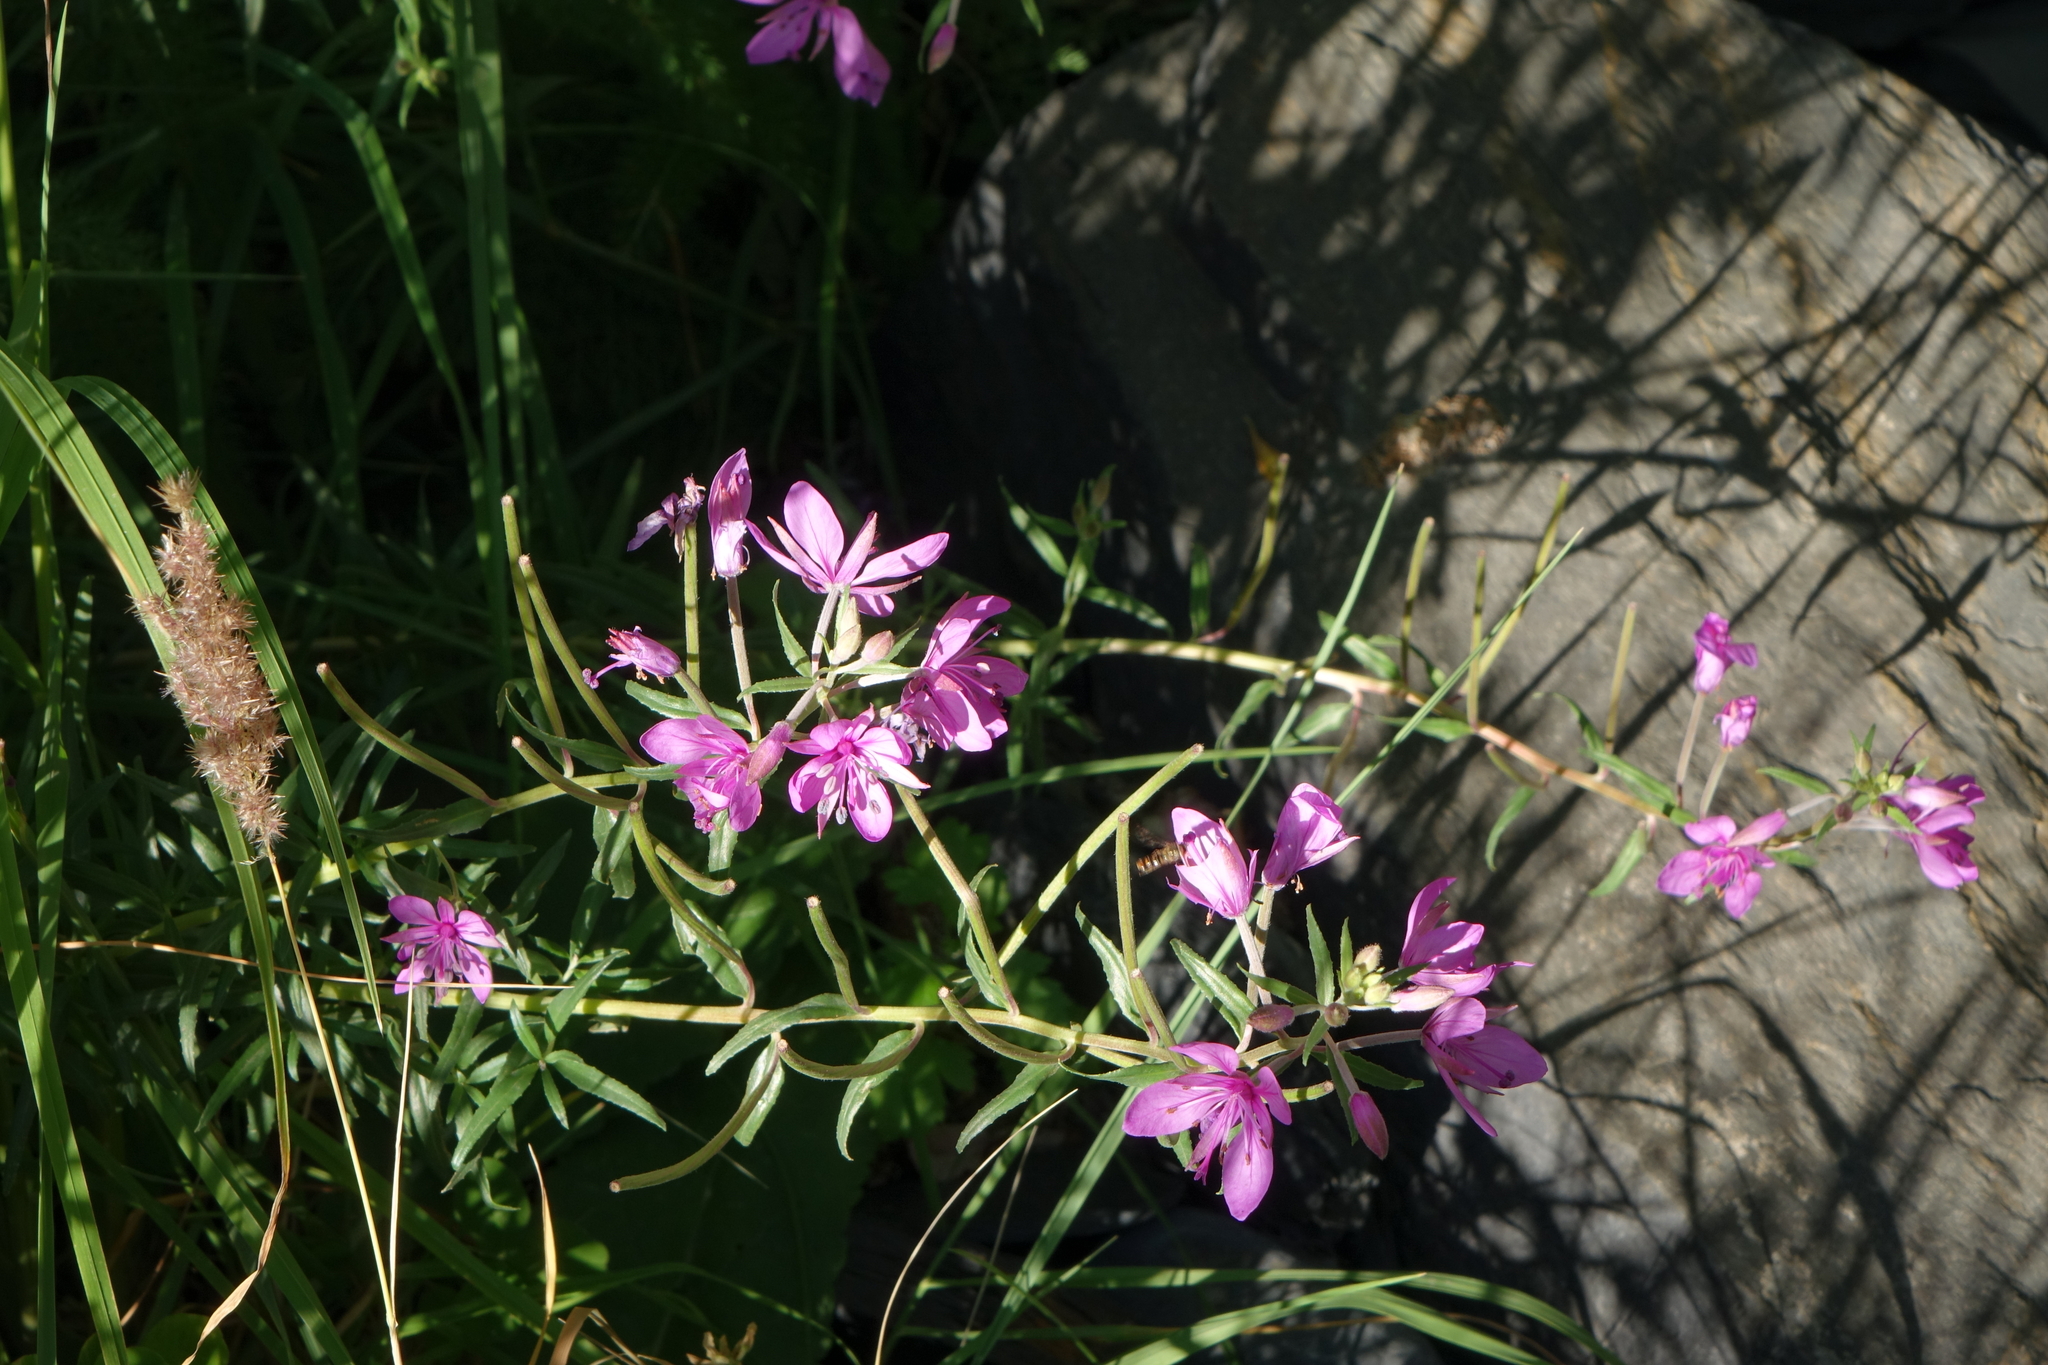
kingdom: Plantae
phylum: Tracheophyta
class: Magnoliopsida
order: Myrtales
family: Onagraceae
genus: Chamaenerion
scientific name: Chamaenerion colchicum
